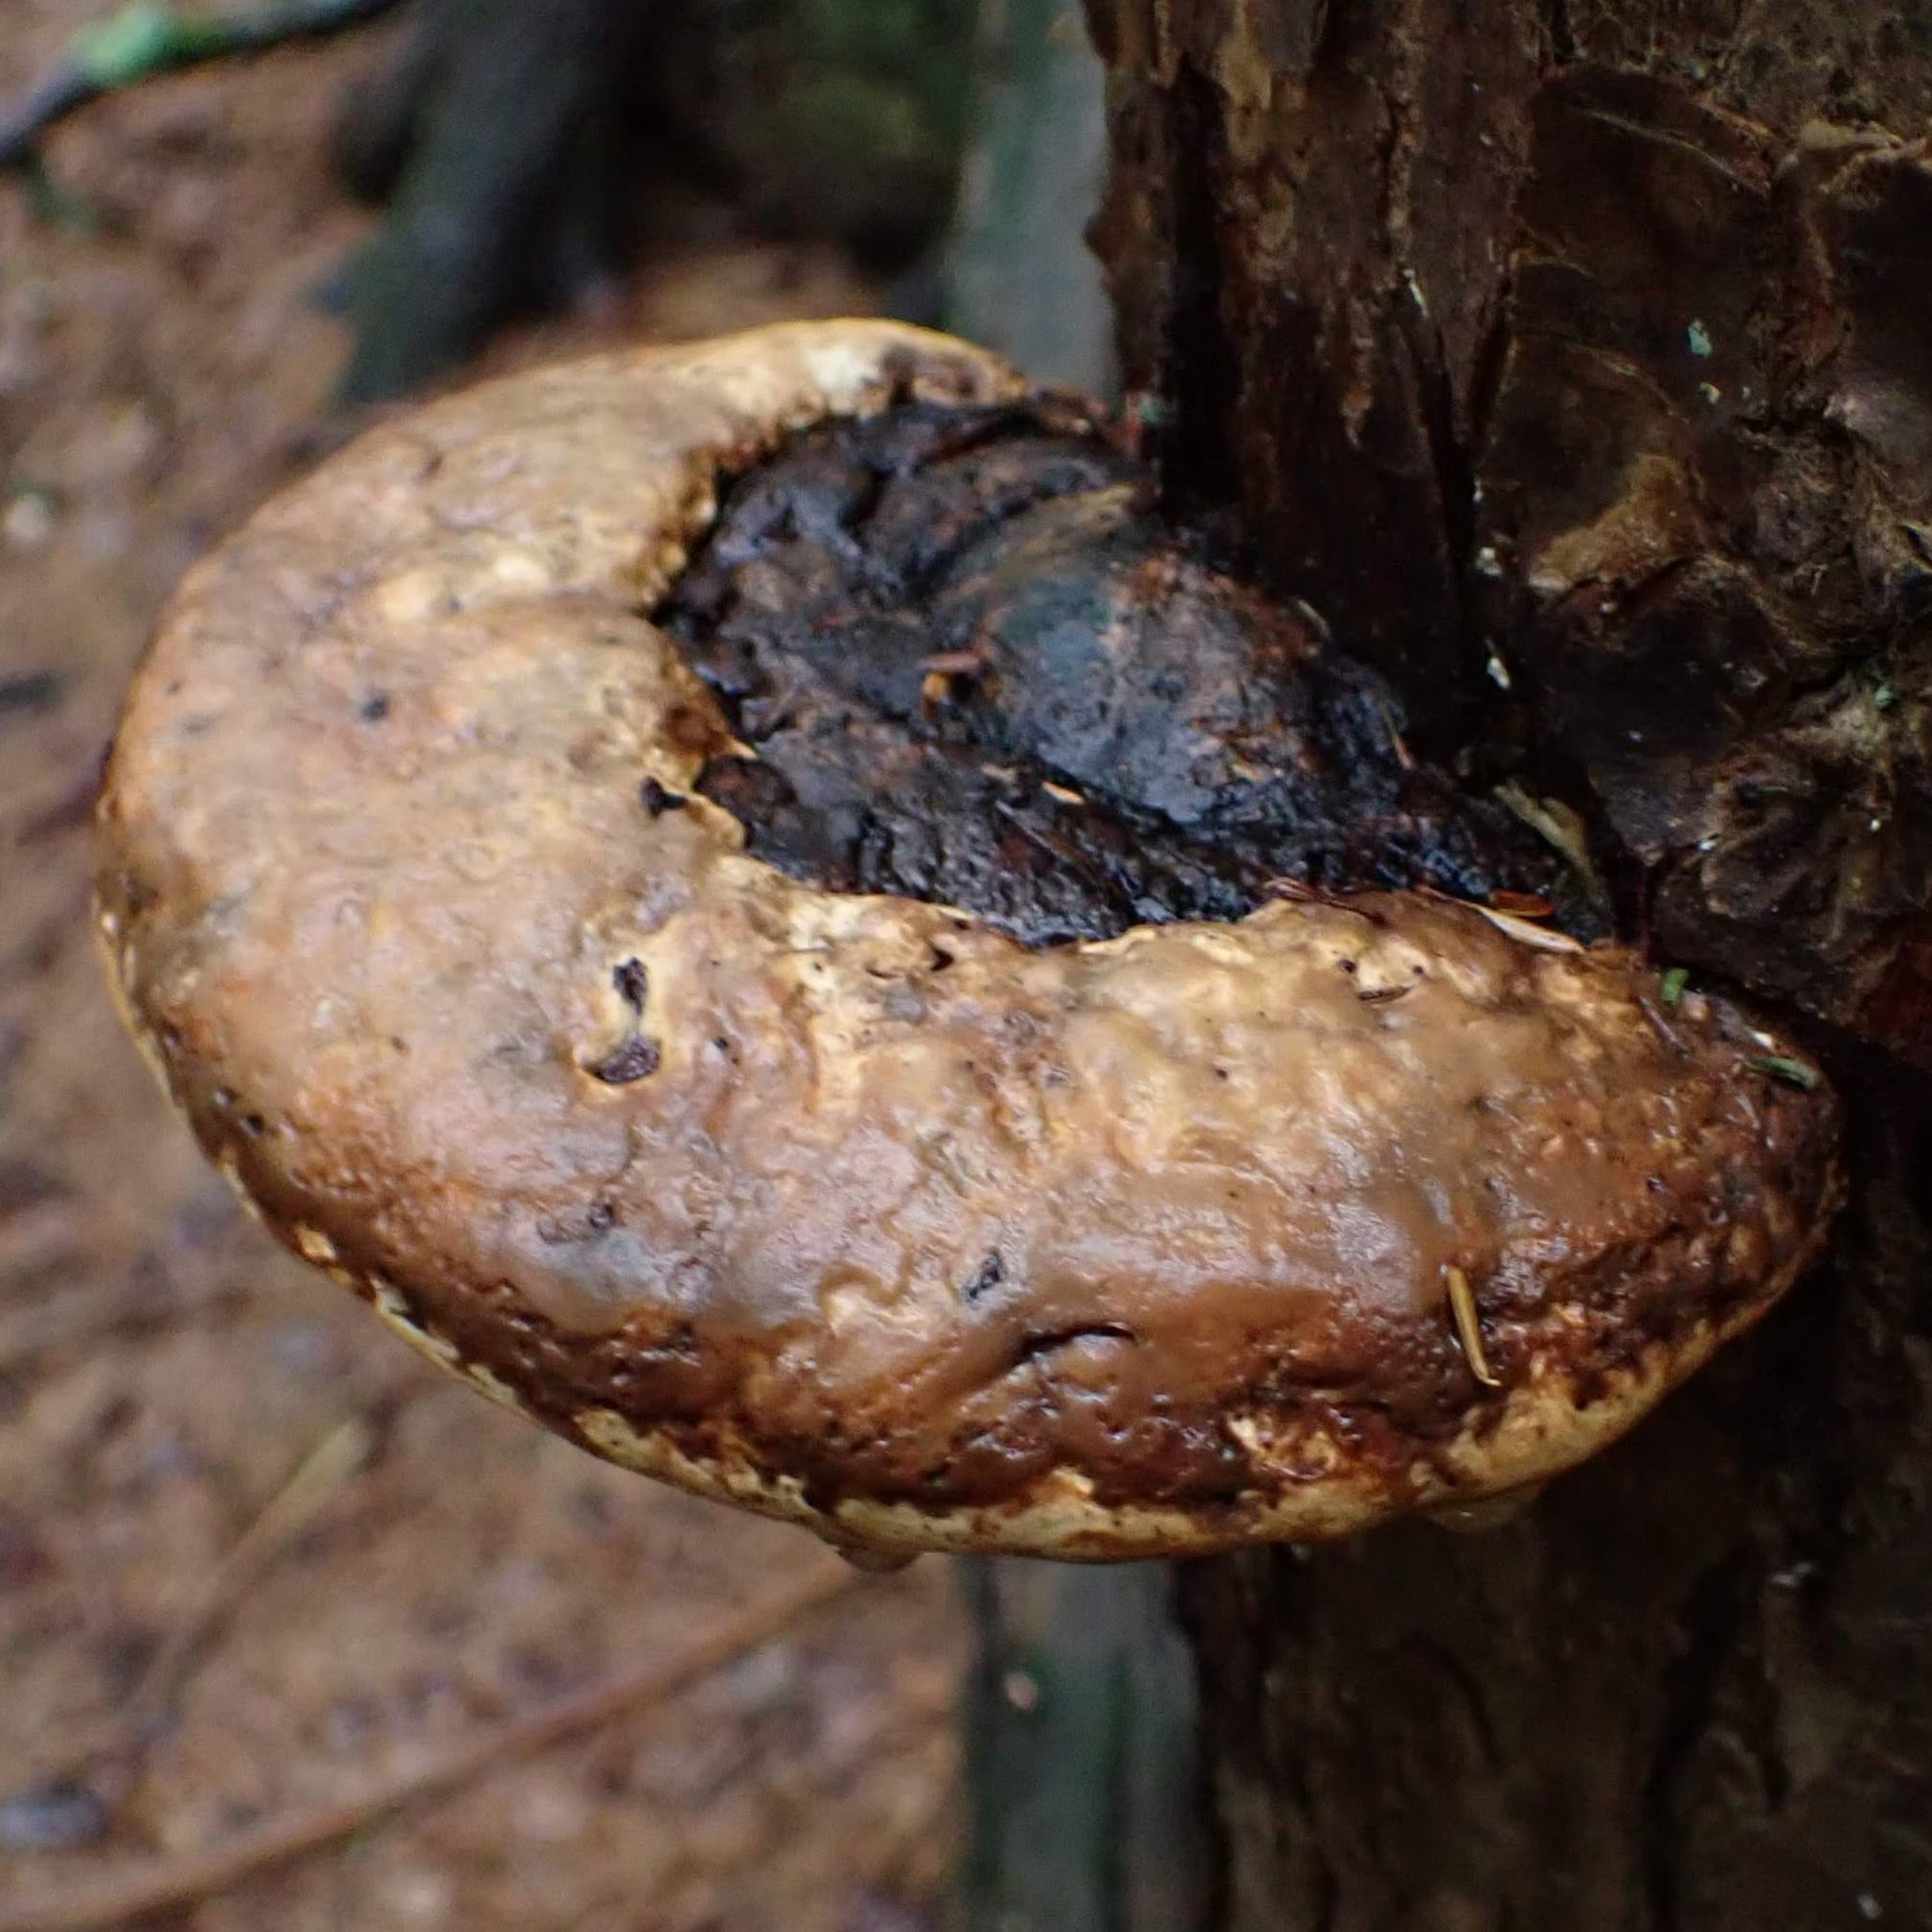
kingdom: Fungi
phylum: Basidiomycota
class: Agaricomycetes
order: Polyporales
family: Fomitopsidaceae
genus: Fomitopsis
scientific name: Fomitopsis mounceae
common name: Northern red belt
